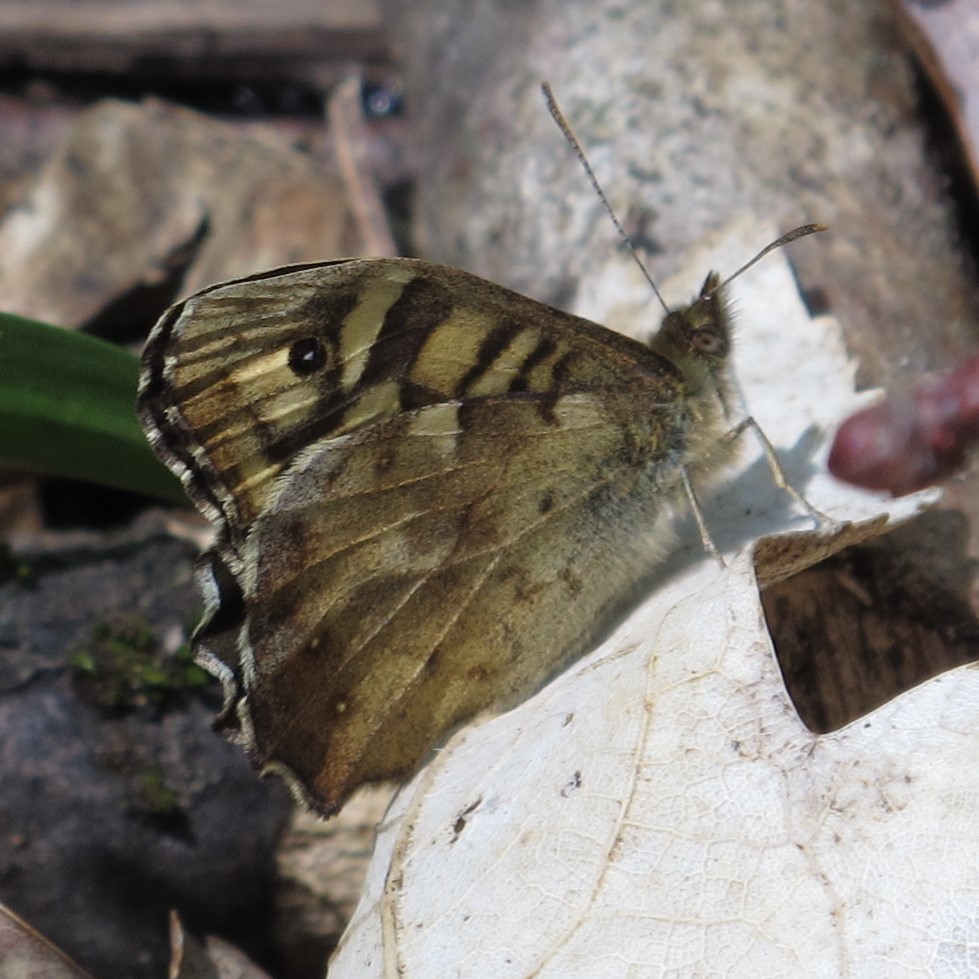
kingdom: Animalia
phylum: Arthropoda
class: Insecta
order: Lepidoptera
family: Nymphalidae
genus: Pararge
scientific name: Pararge aegeria
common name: Speckled wood
